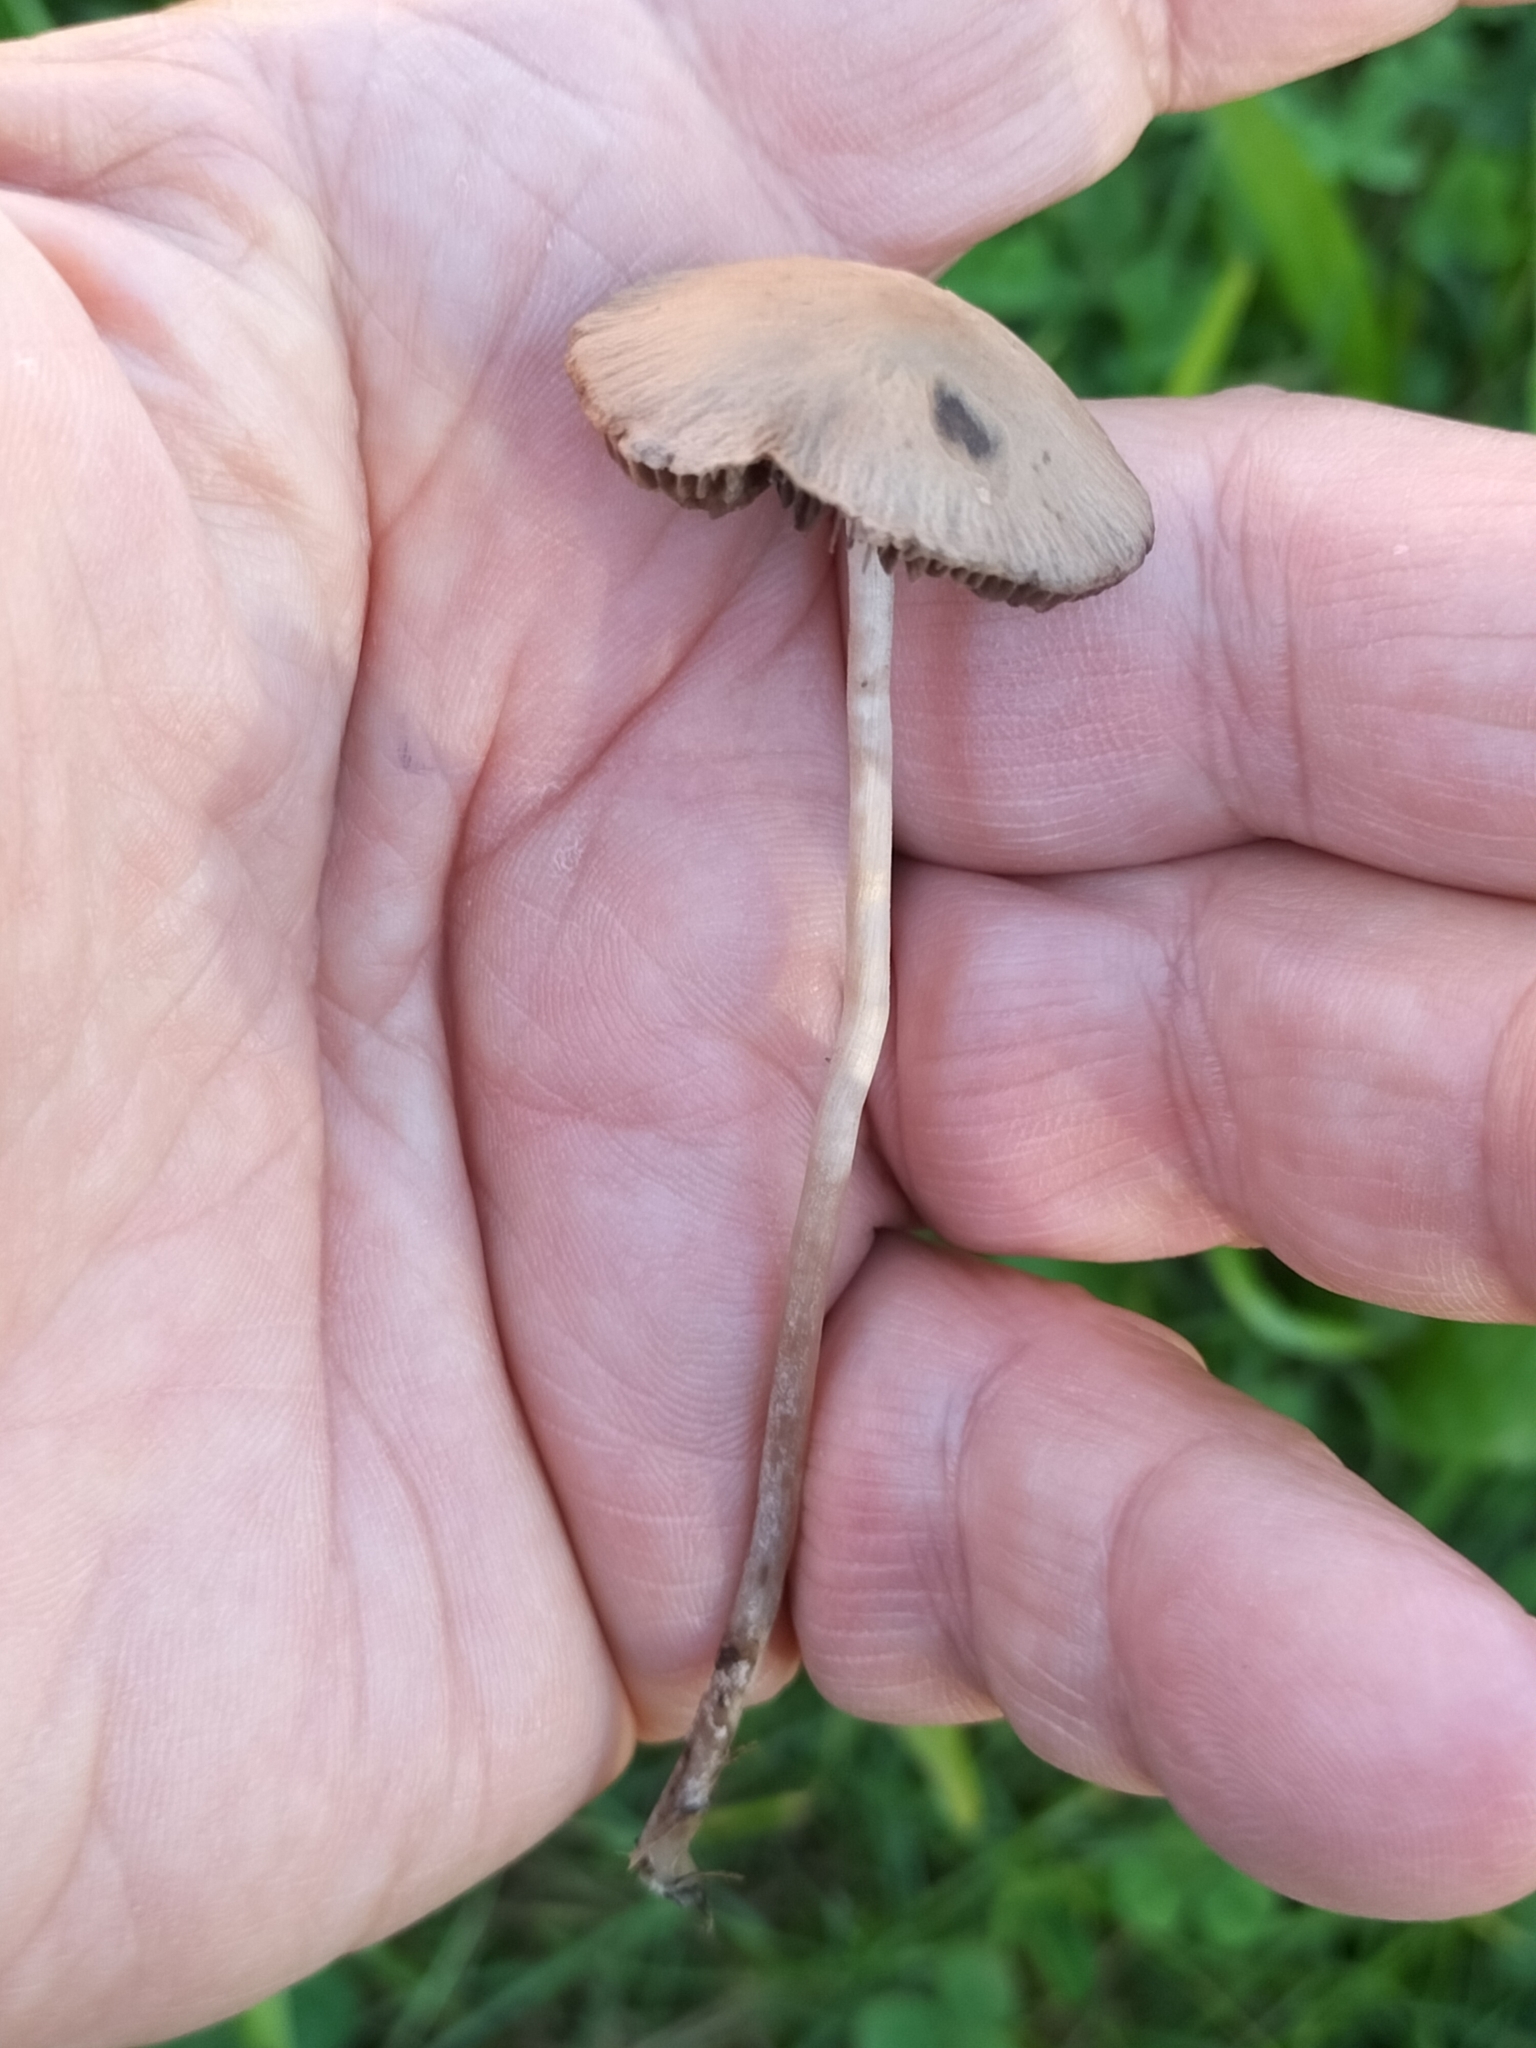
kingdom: Fungi
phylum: Basidiomycota
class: Agaricomycetes
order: Agaricales
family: Bolbitiaceae
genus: Panaeolina
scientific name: Panaeolina foenisecii
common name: Brown hay cap
